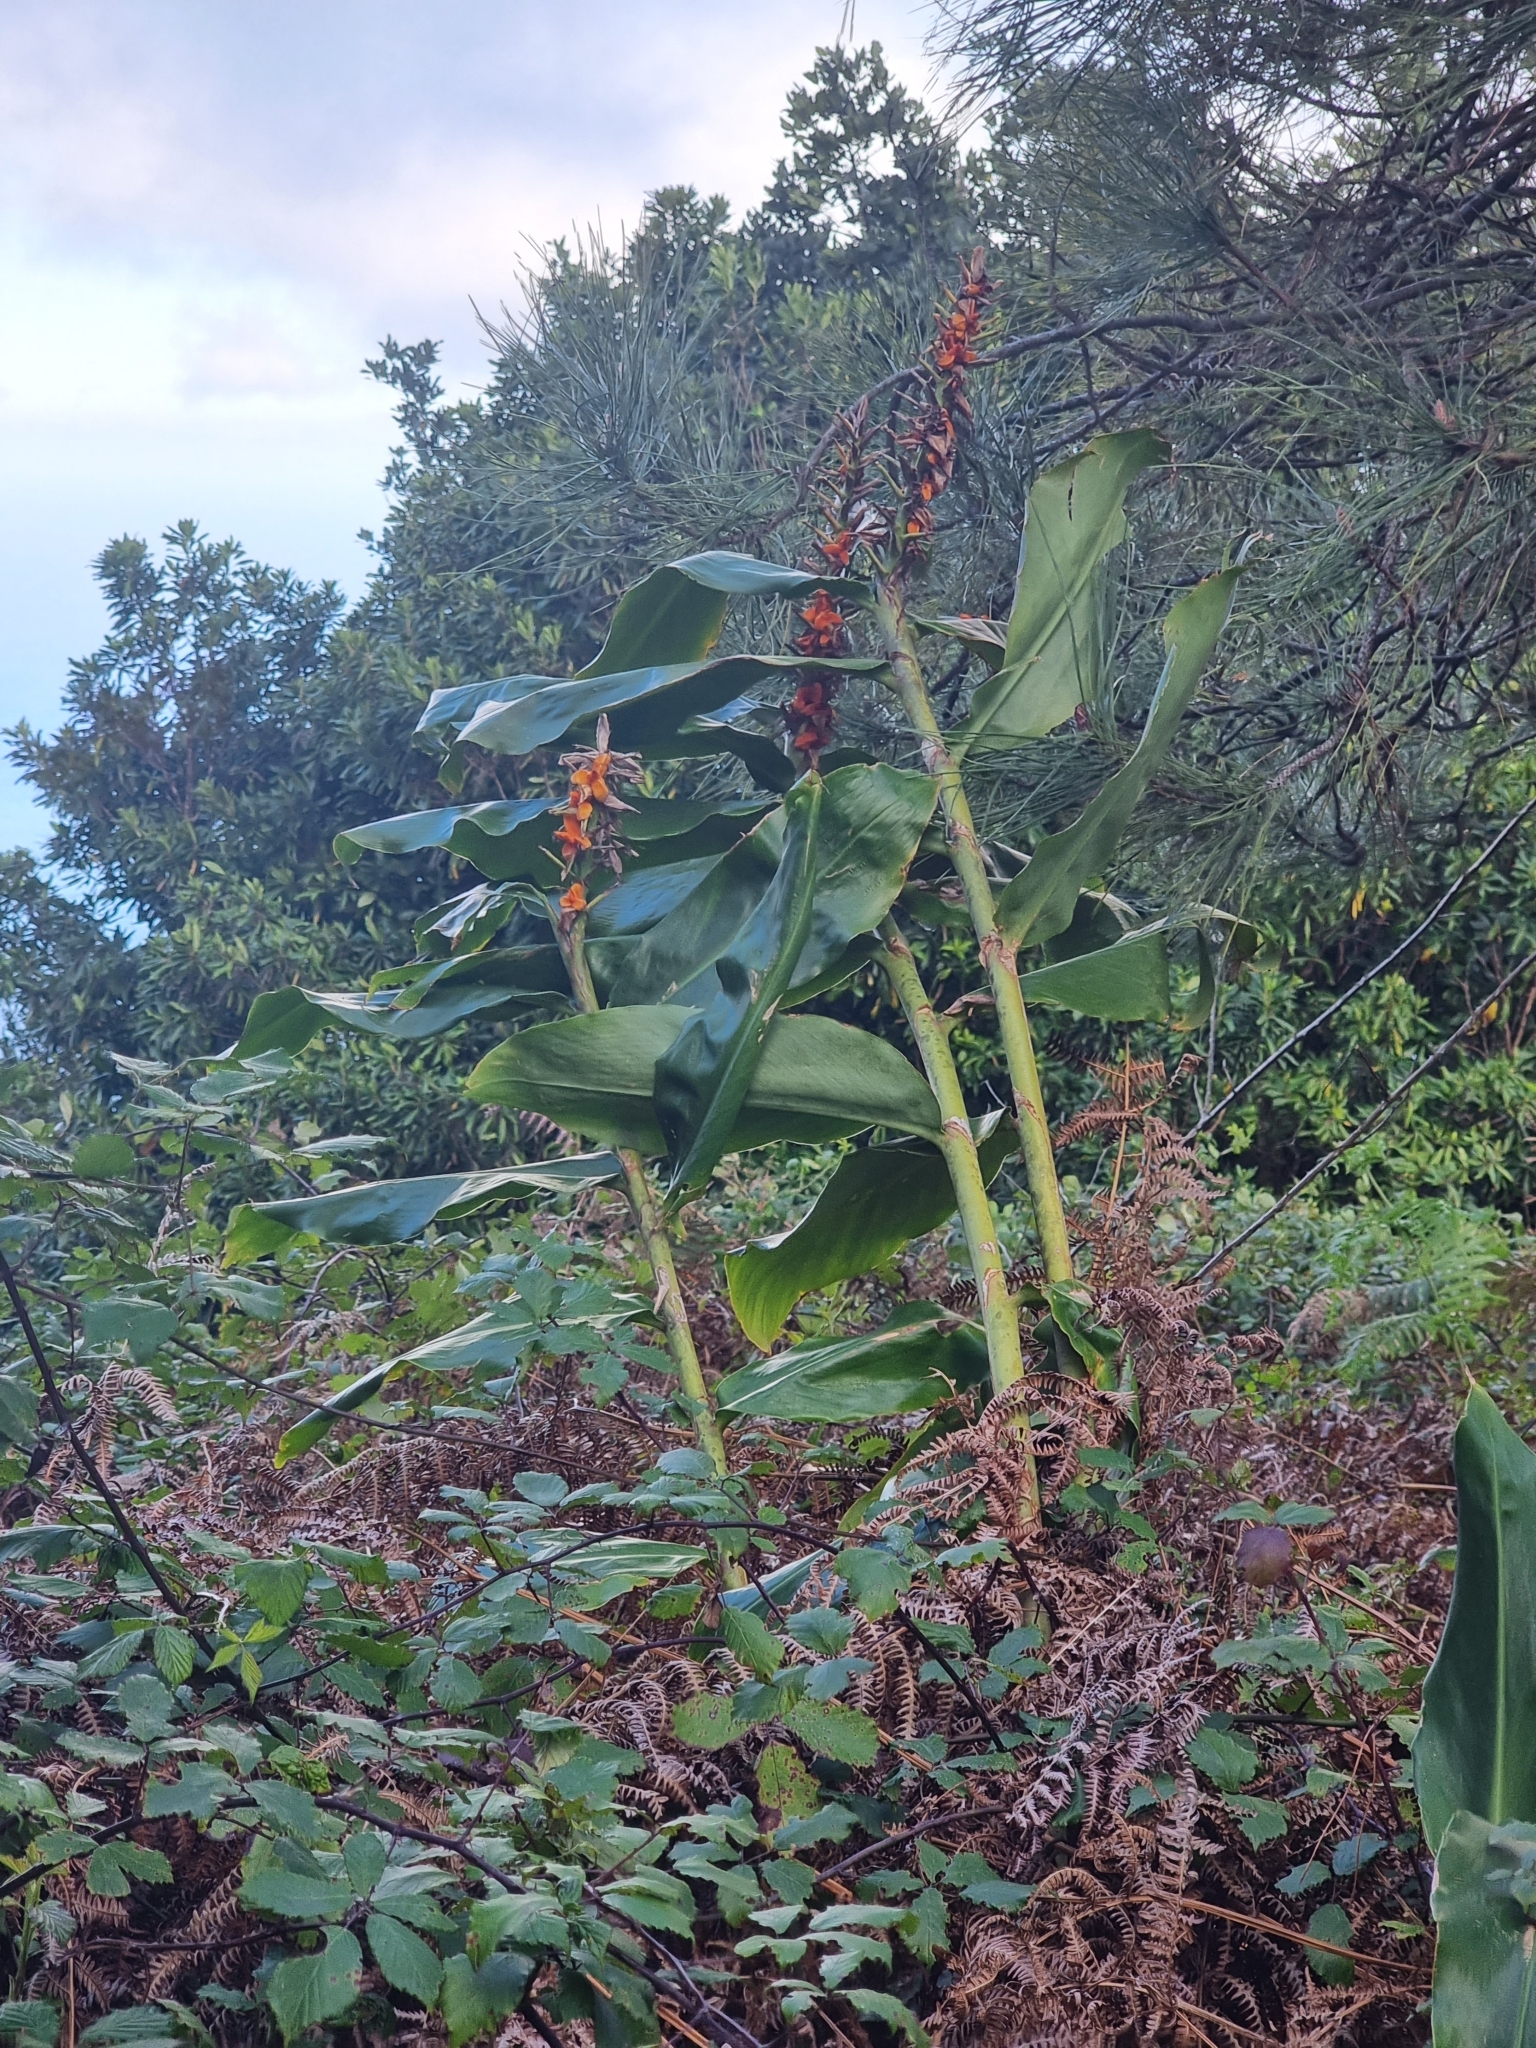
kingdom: Plantae
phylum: Tracheophyta
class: Liliopsida
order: Zingiberales
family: Zingiberaceae
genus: Hedychium
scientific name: Hedychium gardnerianum
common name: Himalayan ginger
